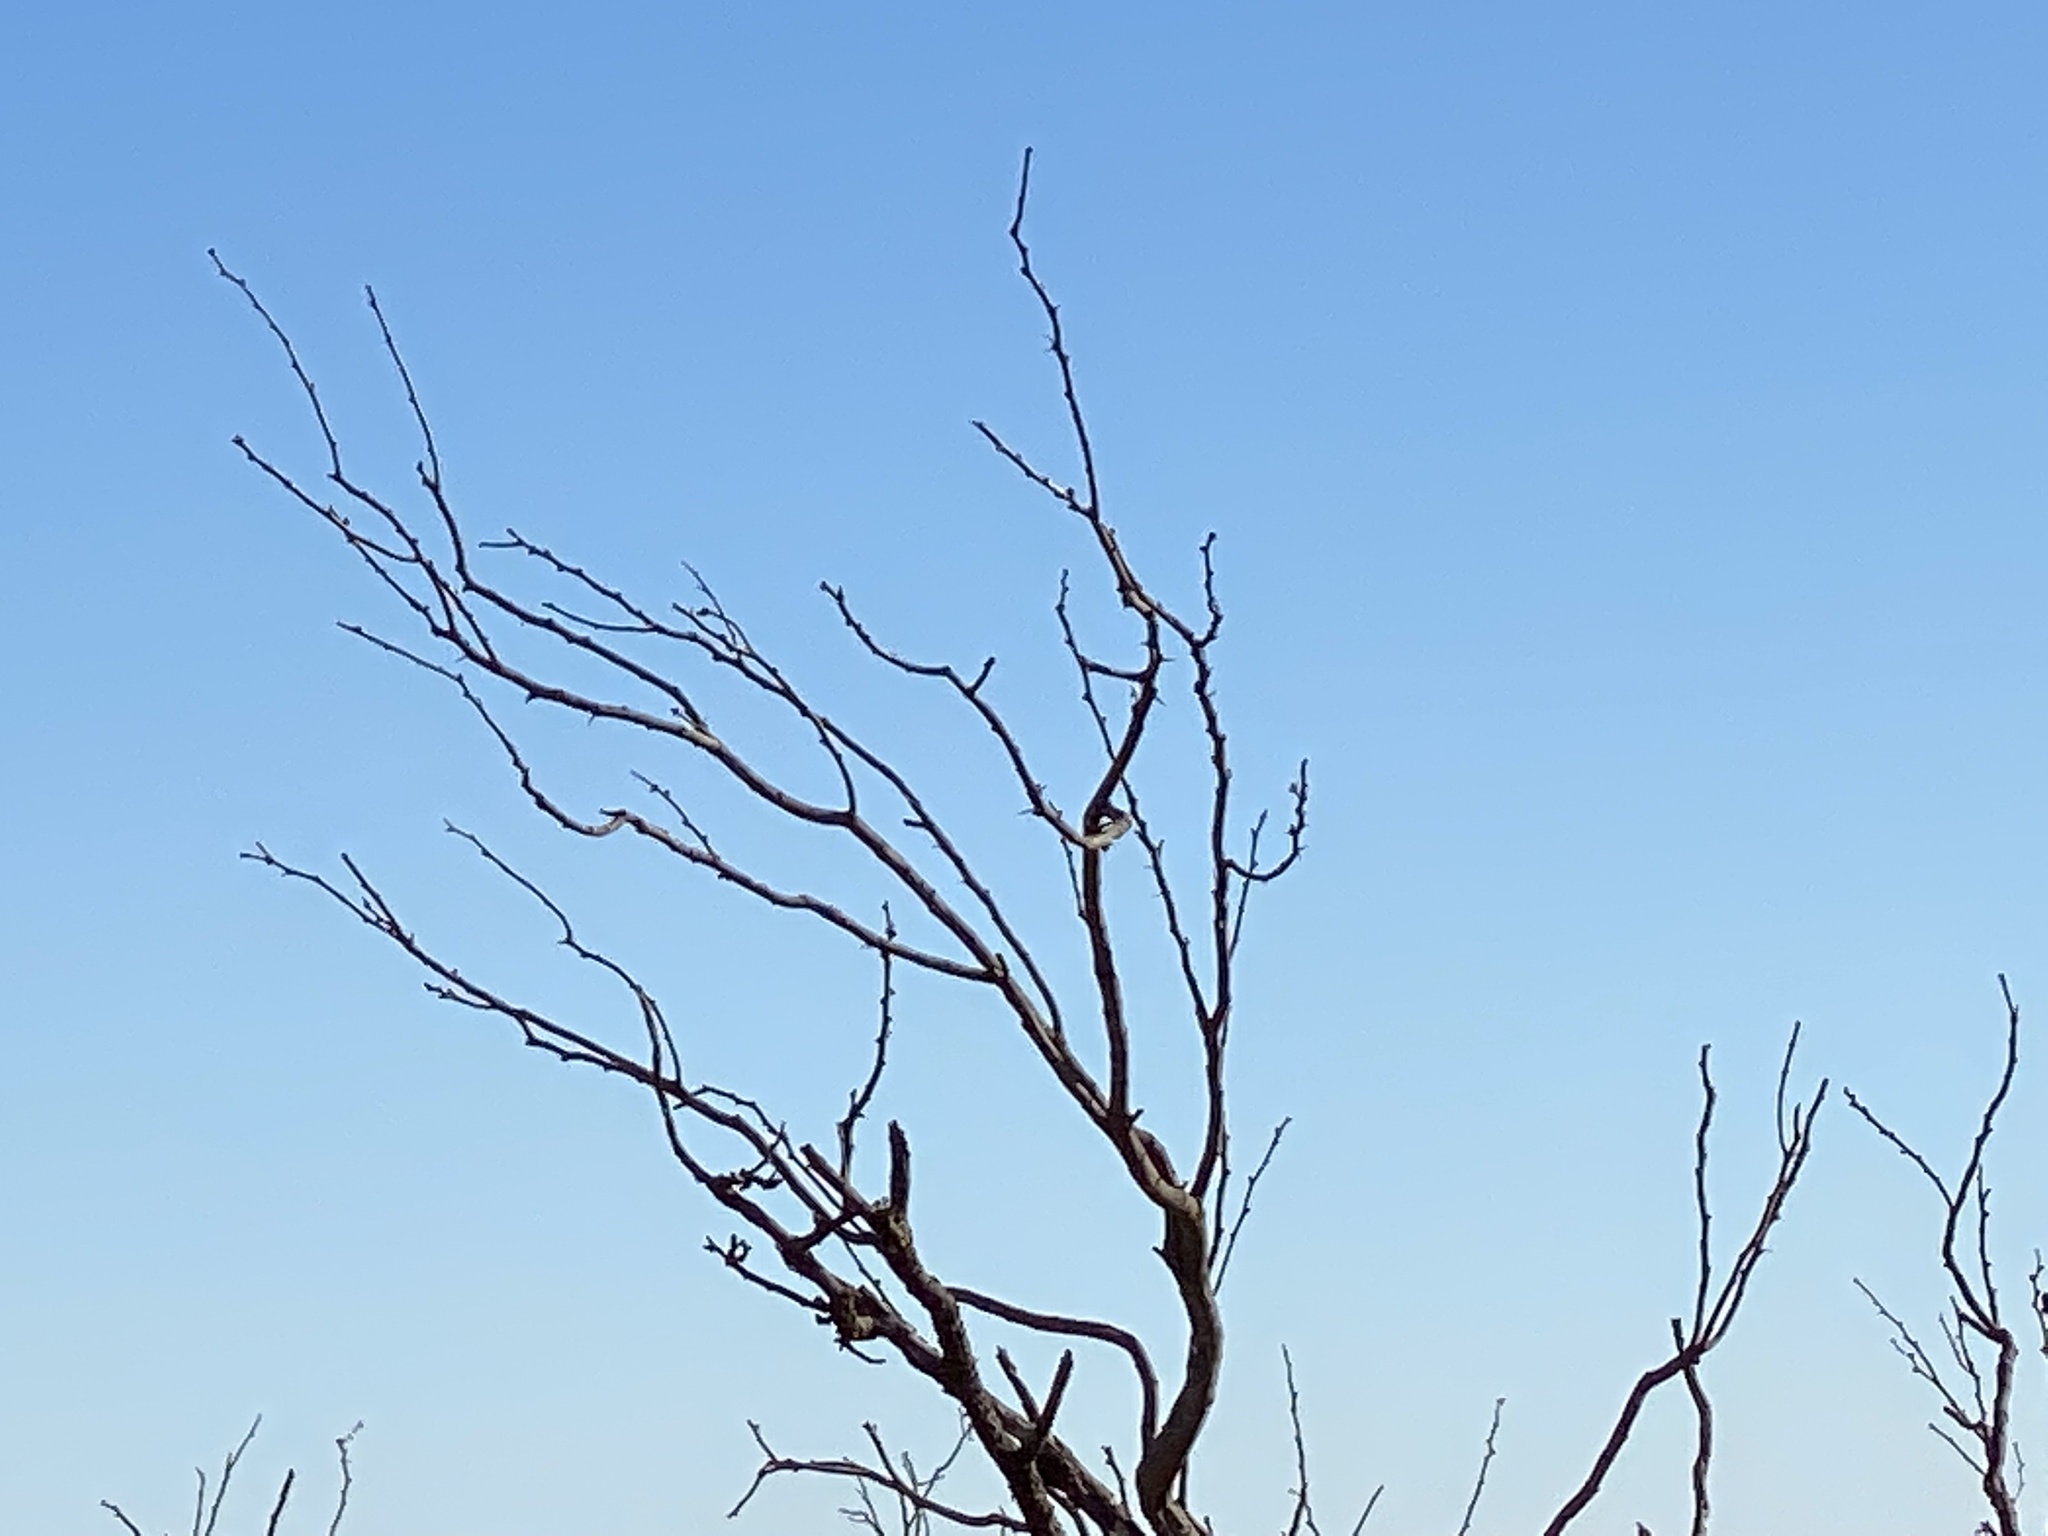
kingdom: Plantae
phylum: Tracheophyta
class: Magnoliopsida
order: Fabales
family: Fabaceae
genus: Prosopis
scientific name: Prosopis glandulosa
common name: Honey mesquite
